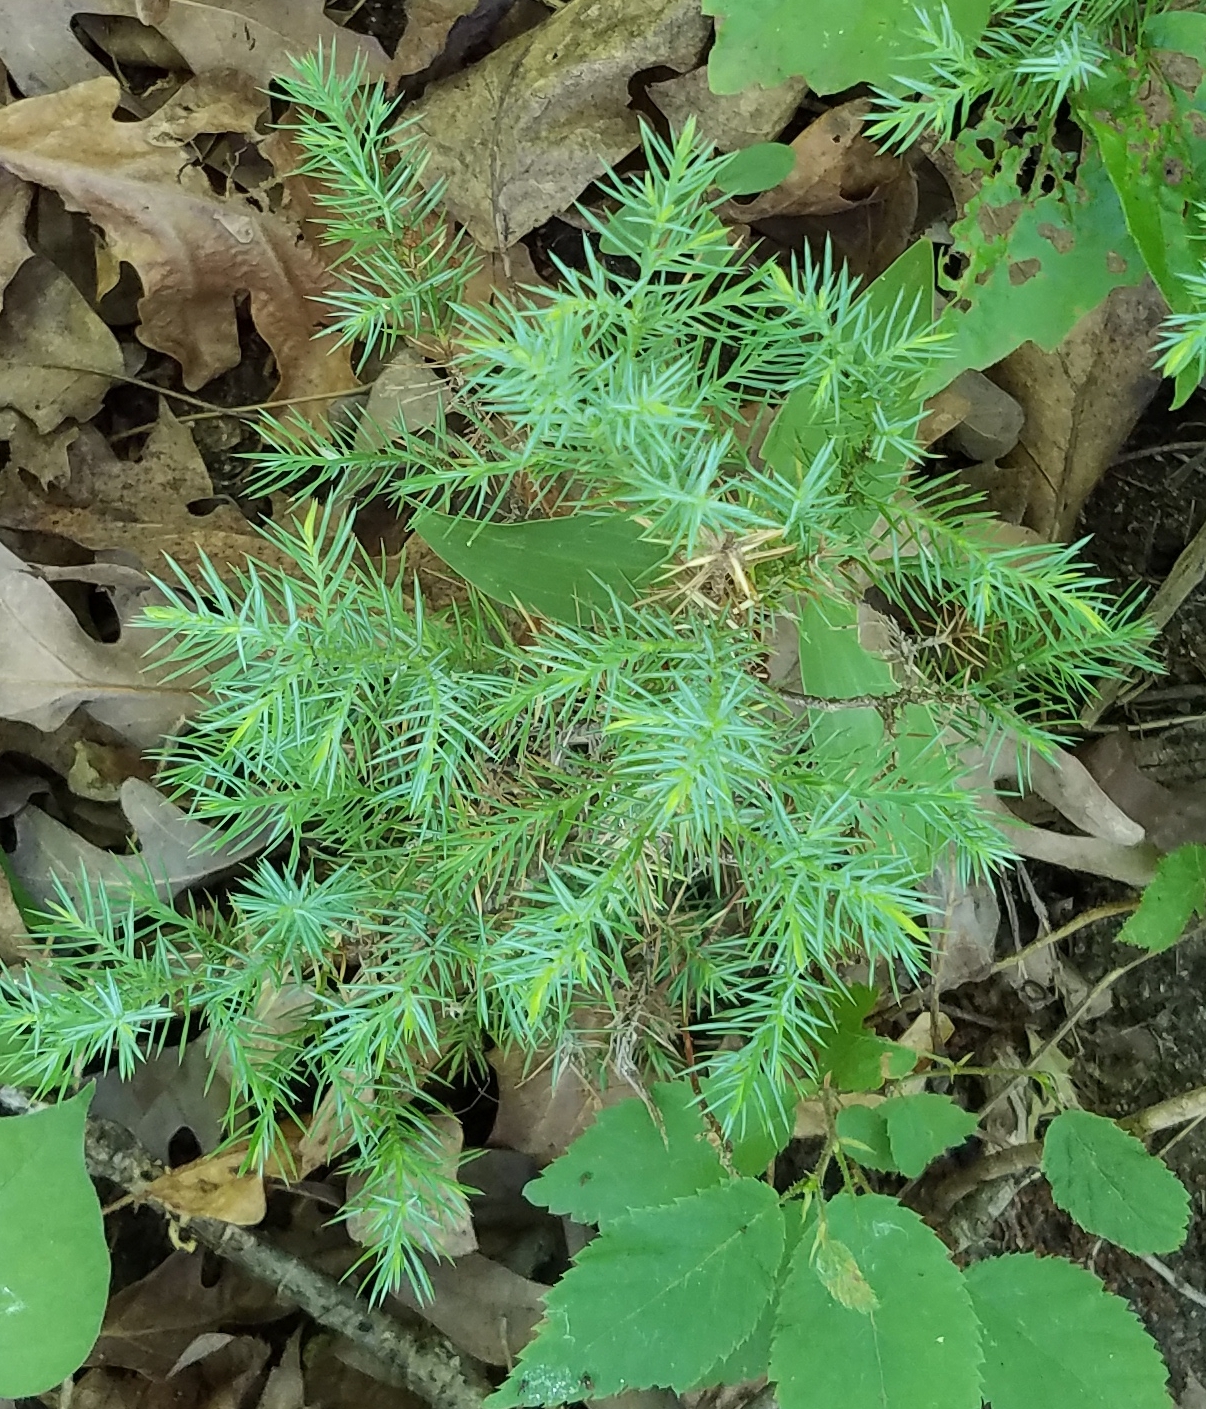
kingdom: Plantae
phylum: Tracheophyta
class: Pinopsida
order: Pinales
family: Cupressaceae
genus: Juniperus
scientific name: Juniperus virginiana
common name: Red juniper
